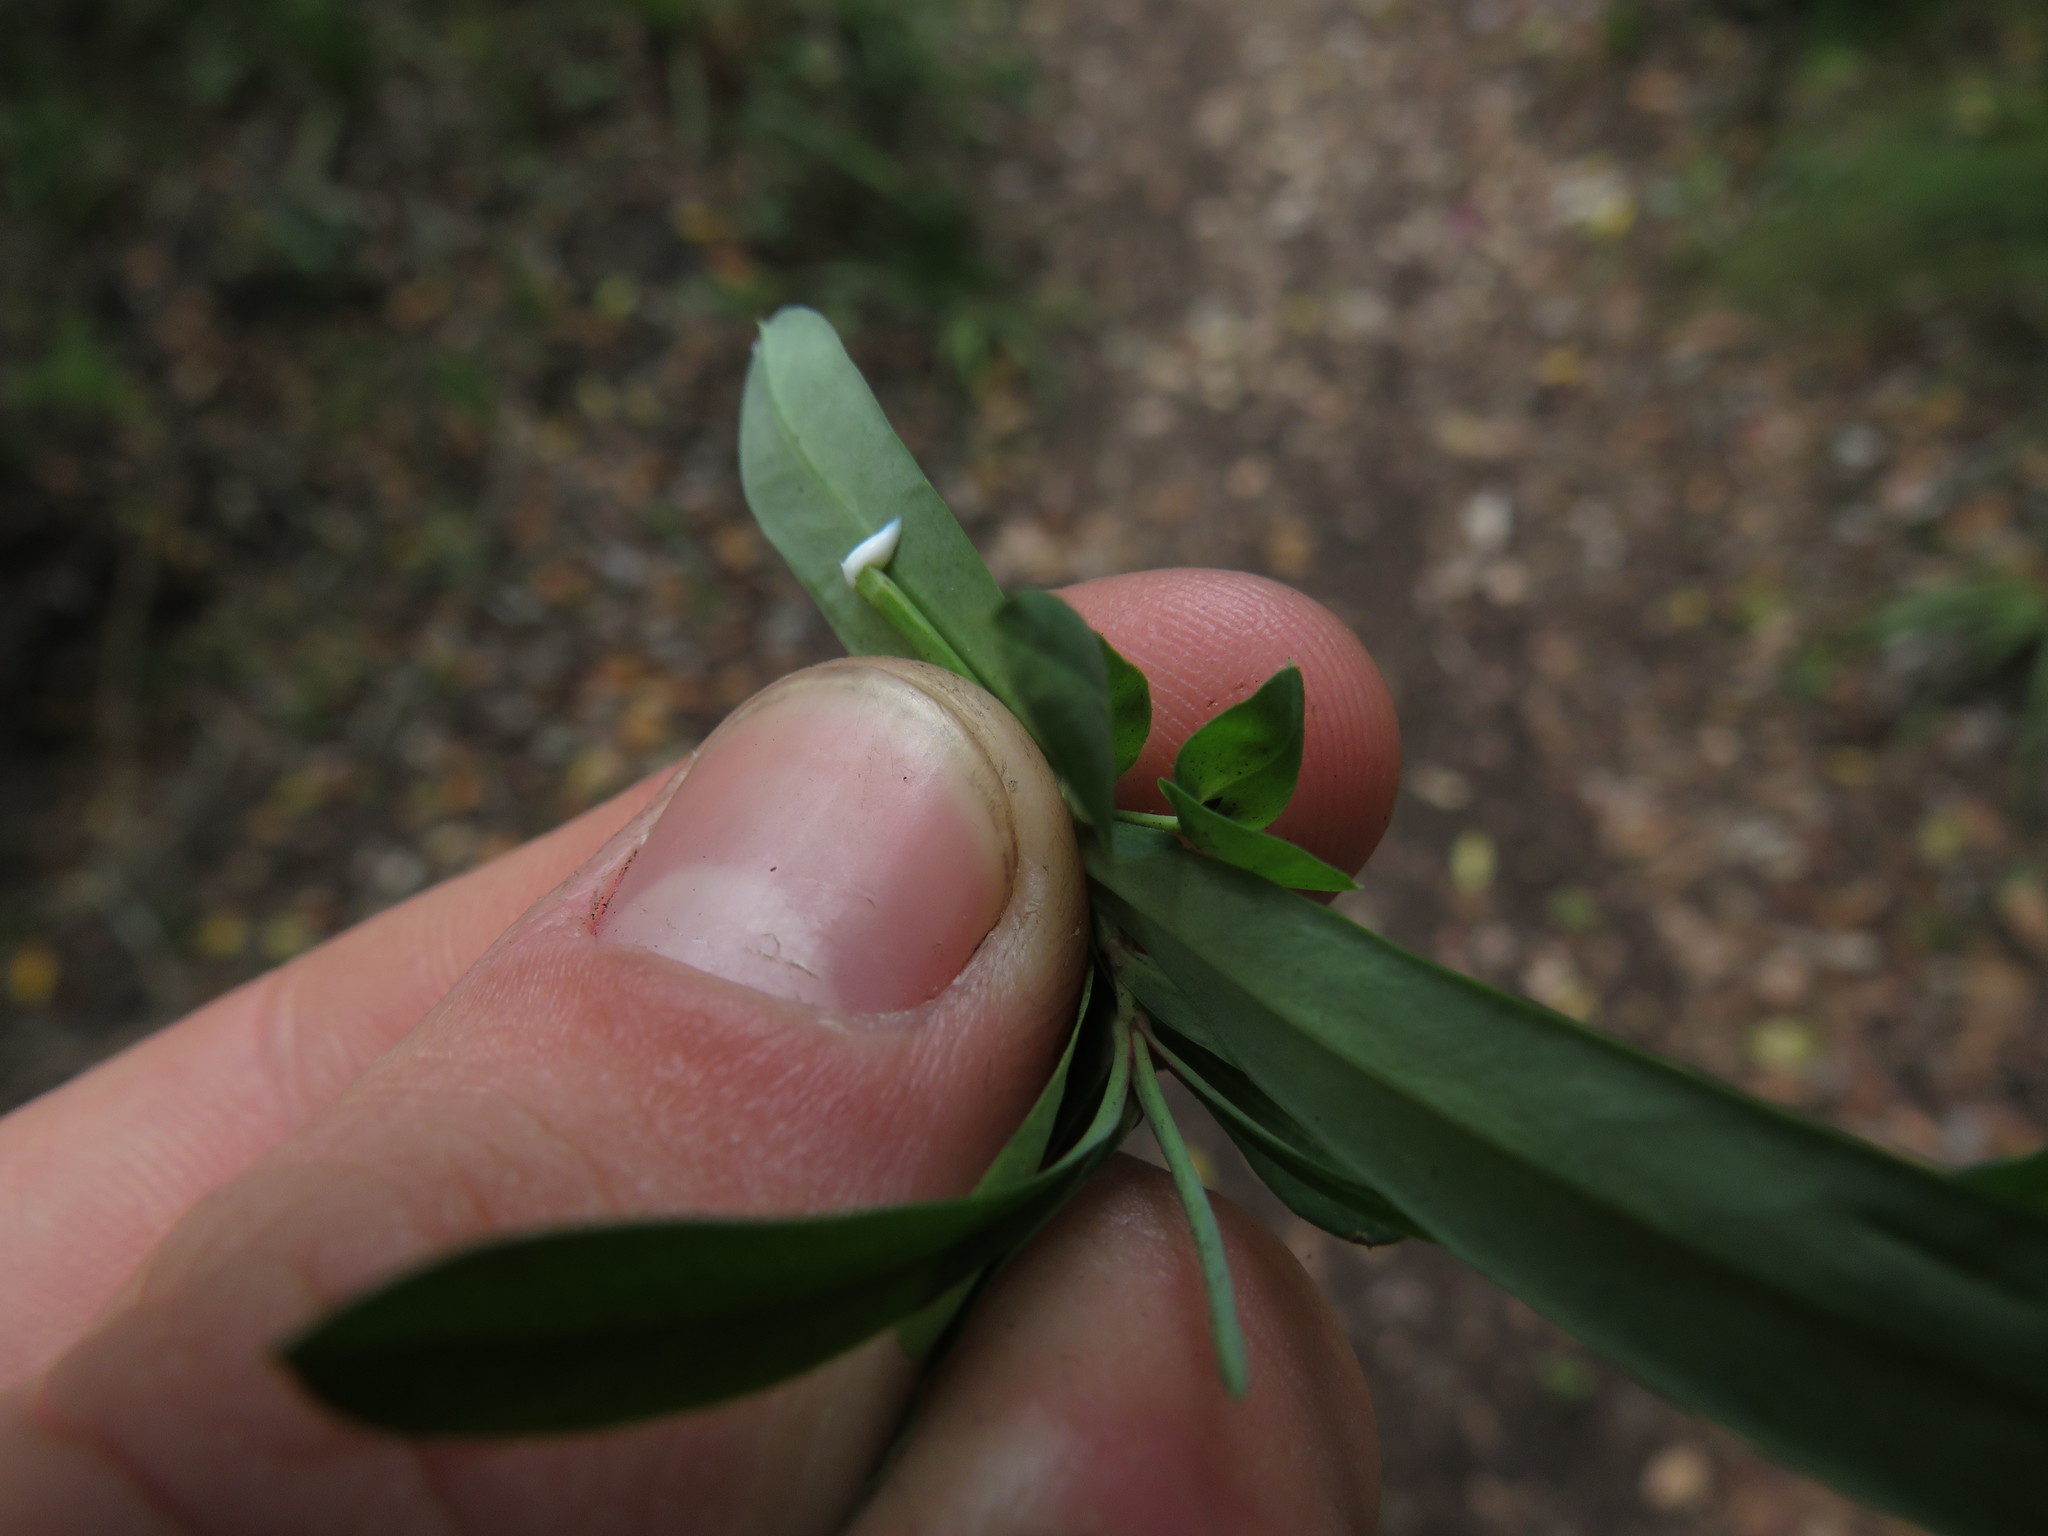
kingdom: Plantae
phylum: Tracheophyta
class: Magnoliopsida
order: Malpighiales
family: Euphorbiaceae
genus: Euphorbia
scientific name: Euphorbia kraussiana
